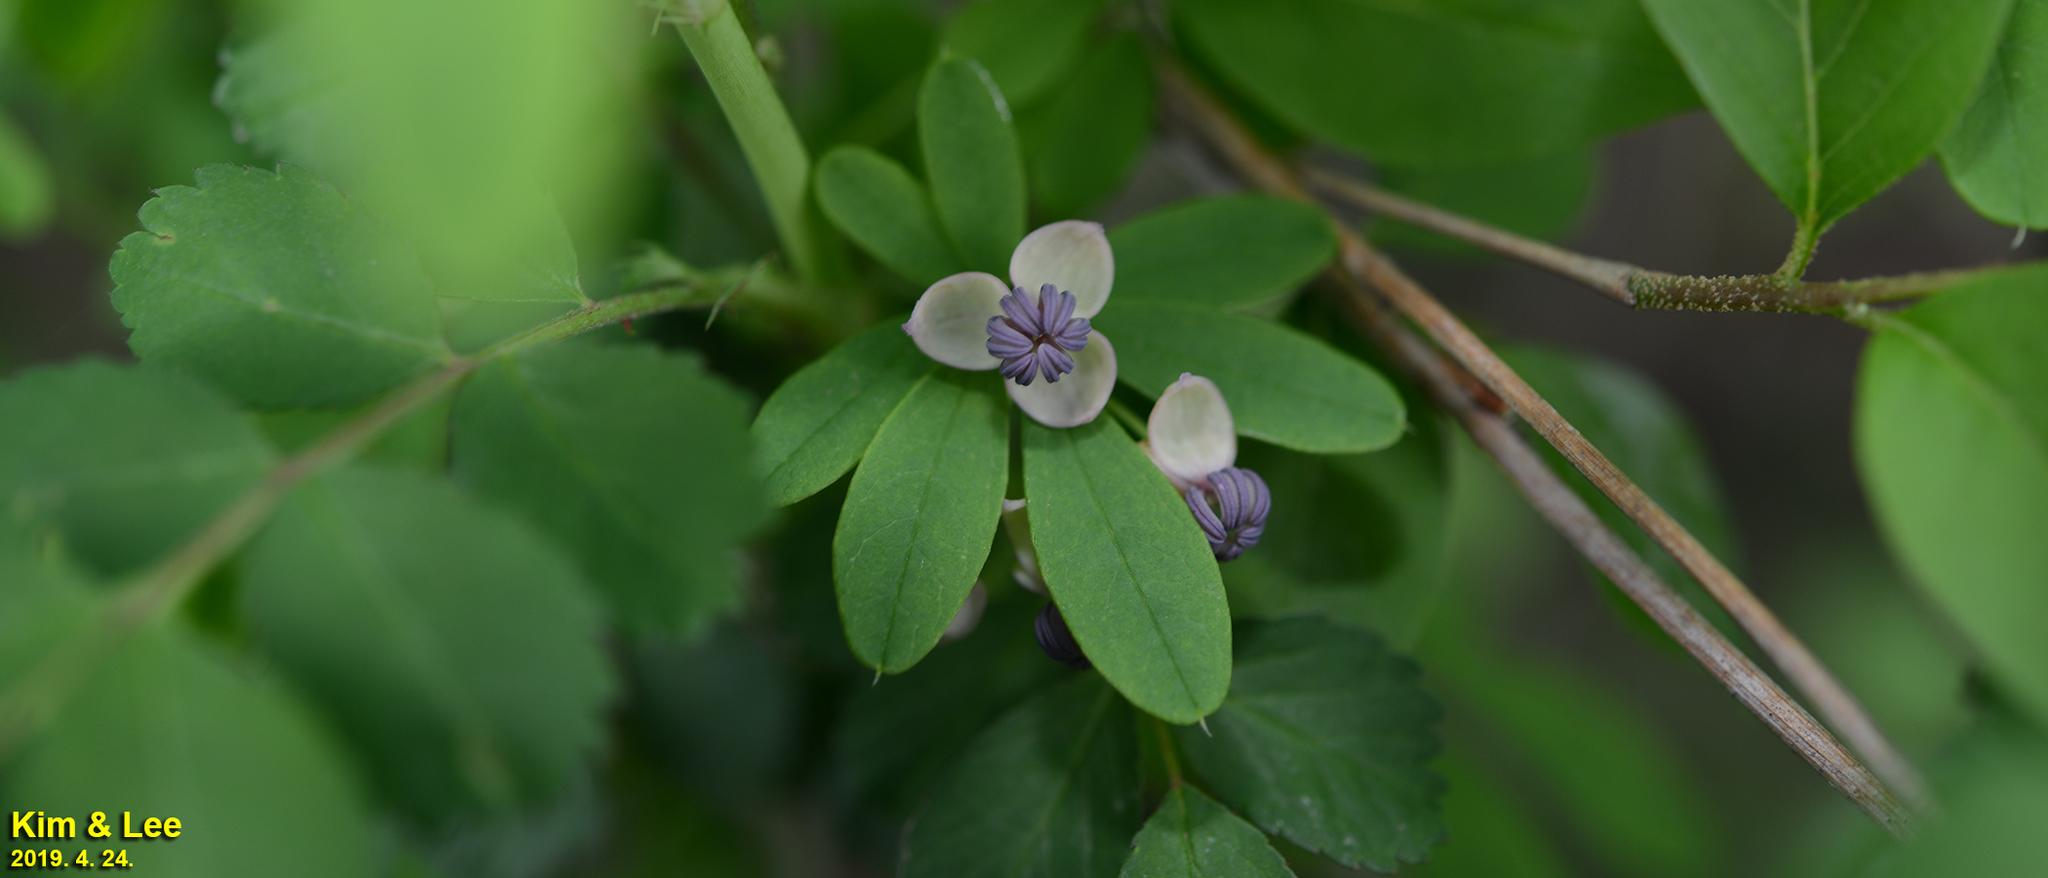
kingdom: Plantae
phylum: Tracheophyta
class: Magnoliopsida
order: Ranunculales
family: Lardizabalaceae
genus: Akebia
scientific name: Akebia quinata
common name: Five-leaf akebia
